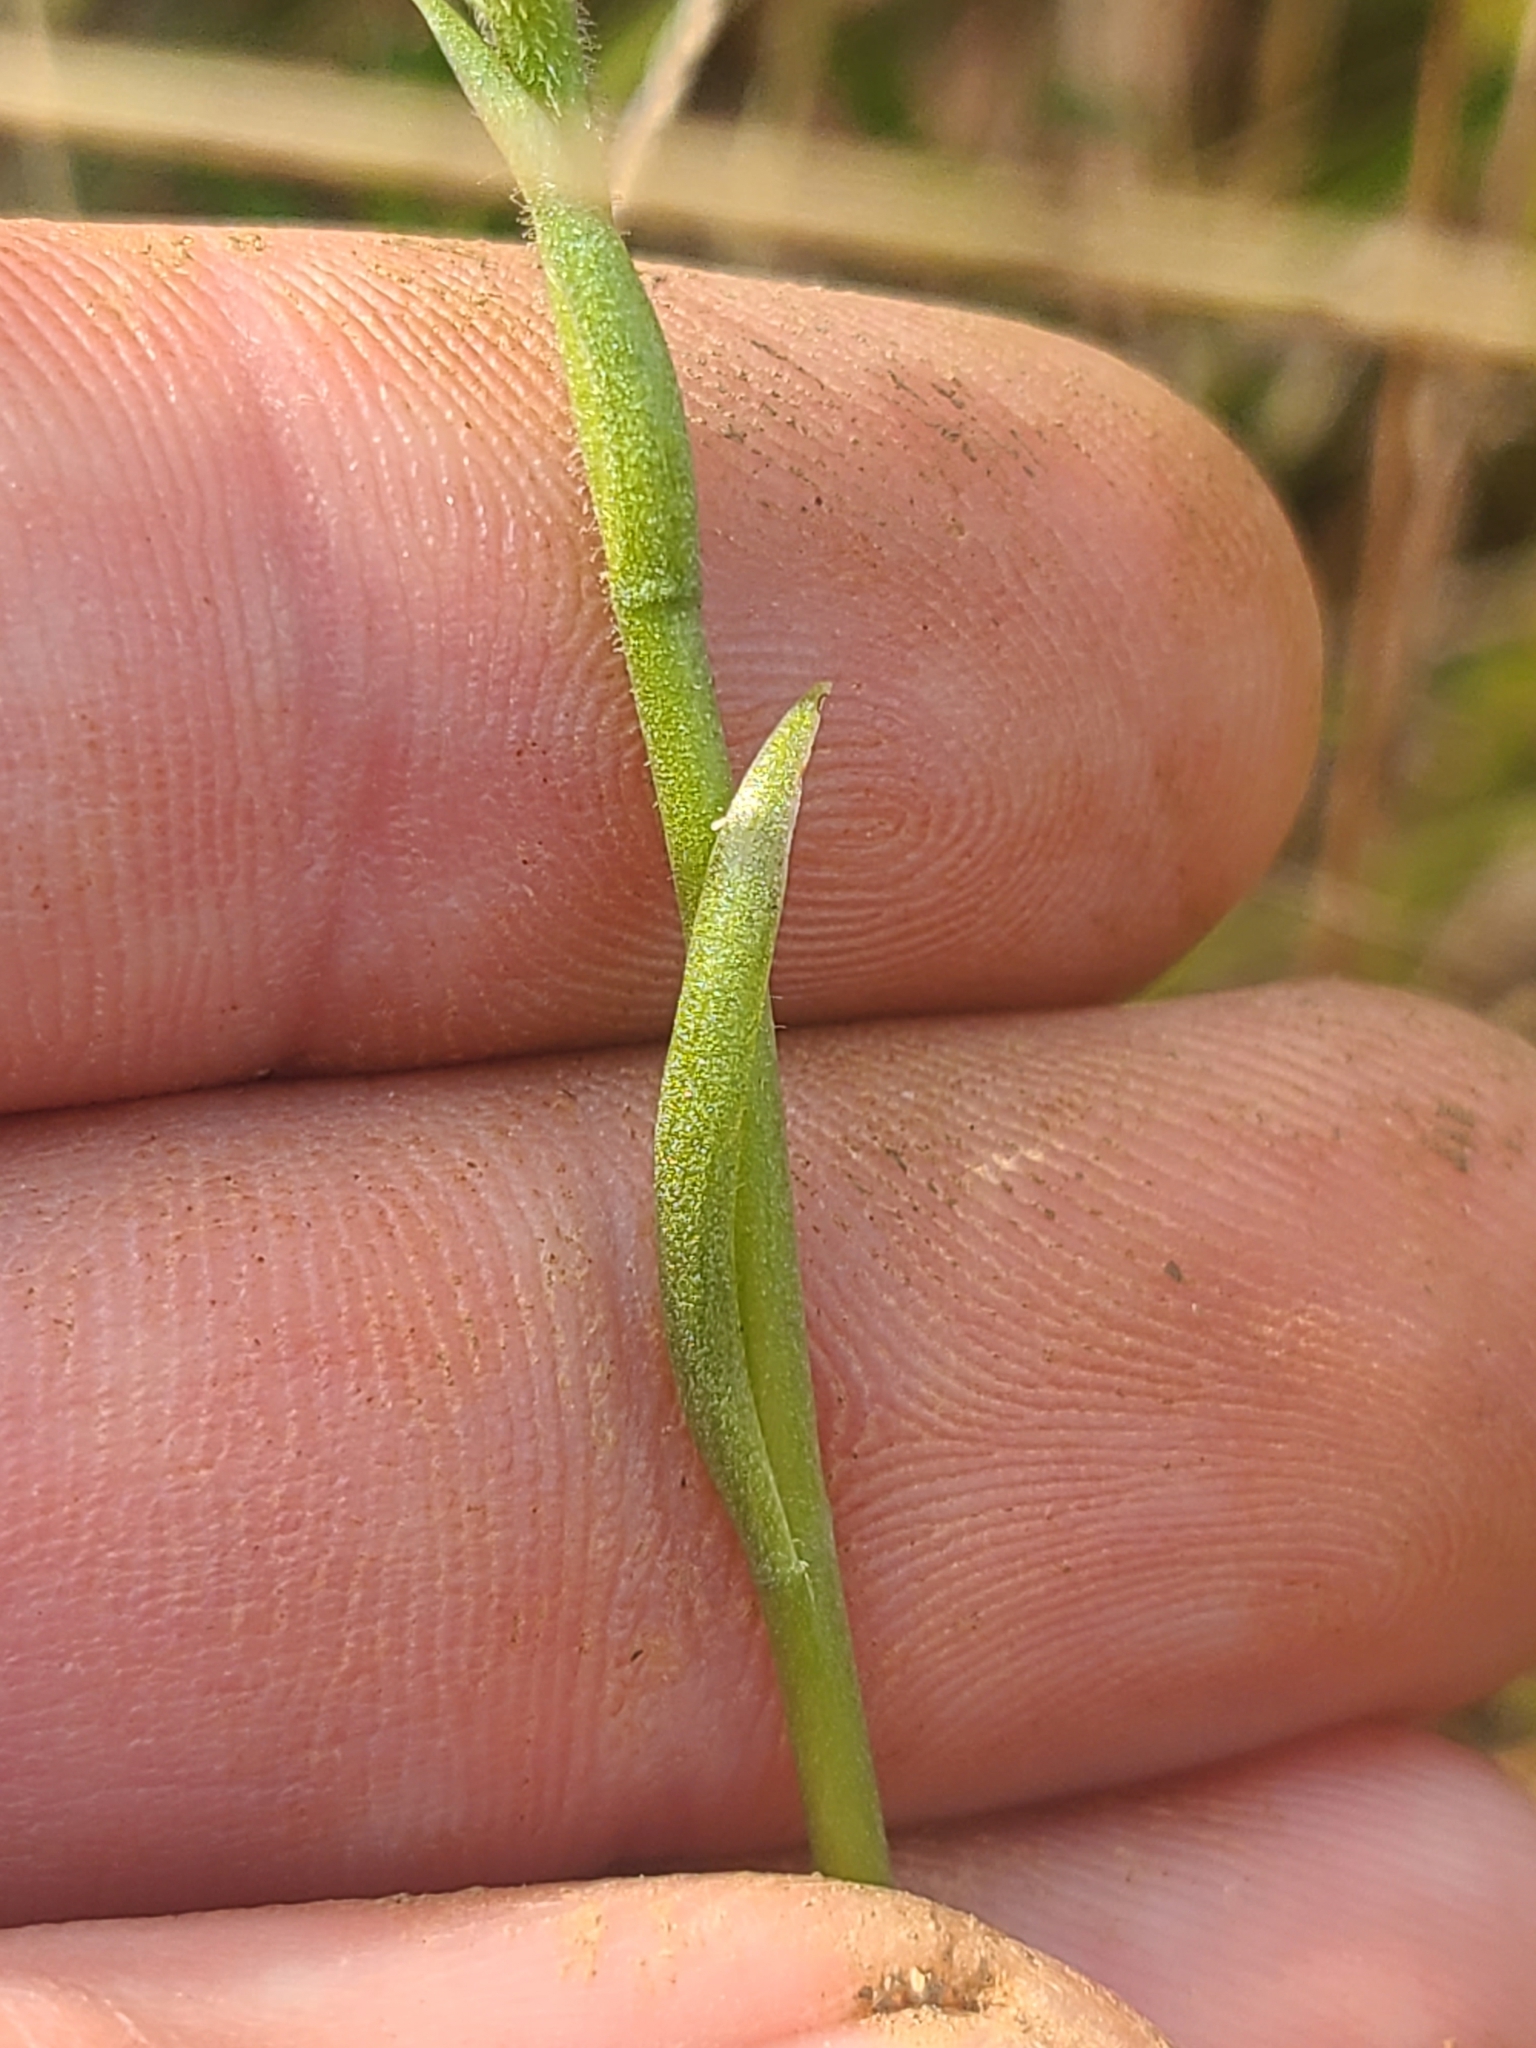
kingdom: Plantae
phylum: Tracheophyta
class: Liliopsida
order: Asparagales
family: Orchidaceae
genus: Spiranthes
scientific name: Spiranthes cernua
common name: Dropping ladies'-tresses
